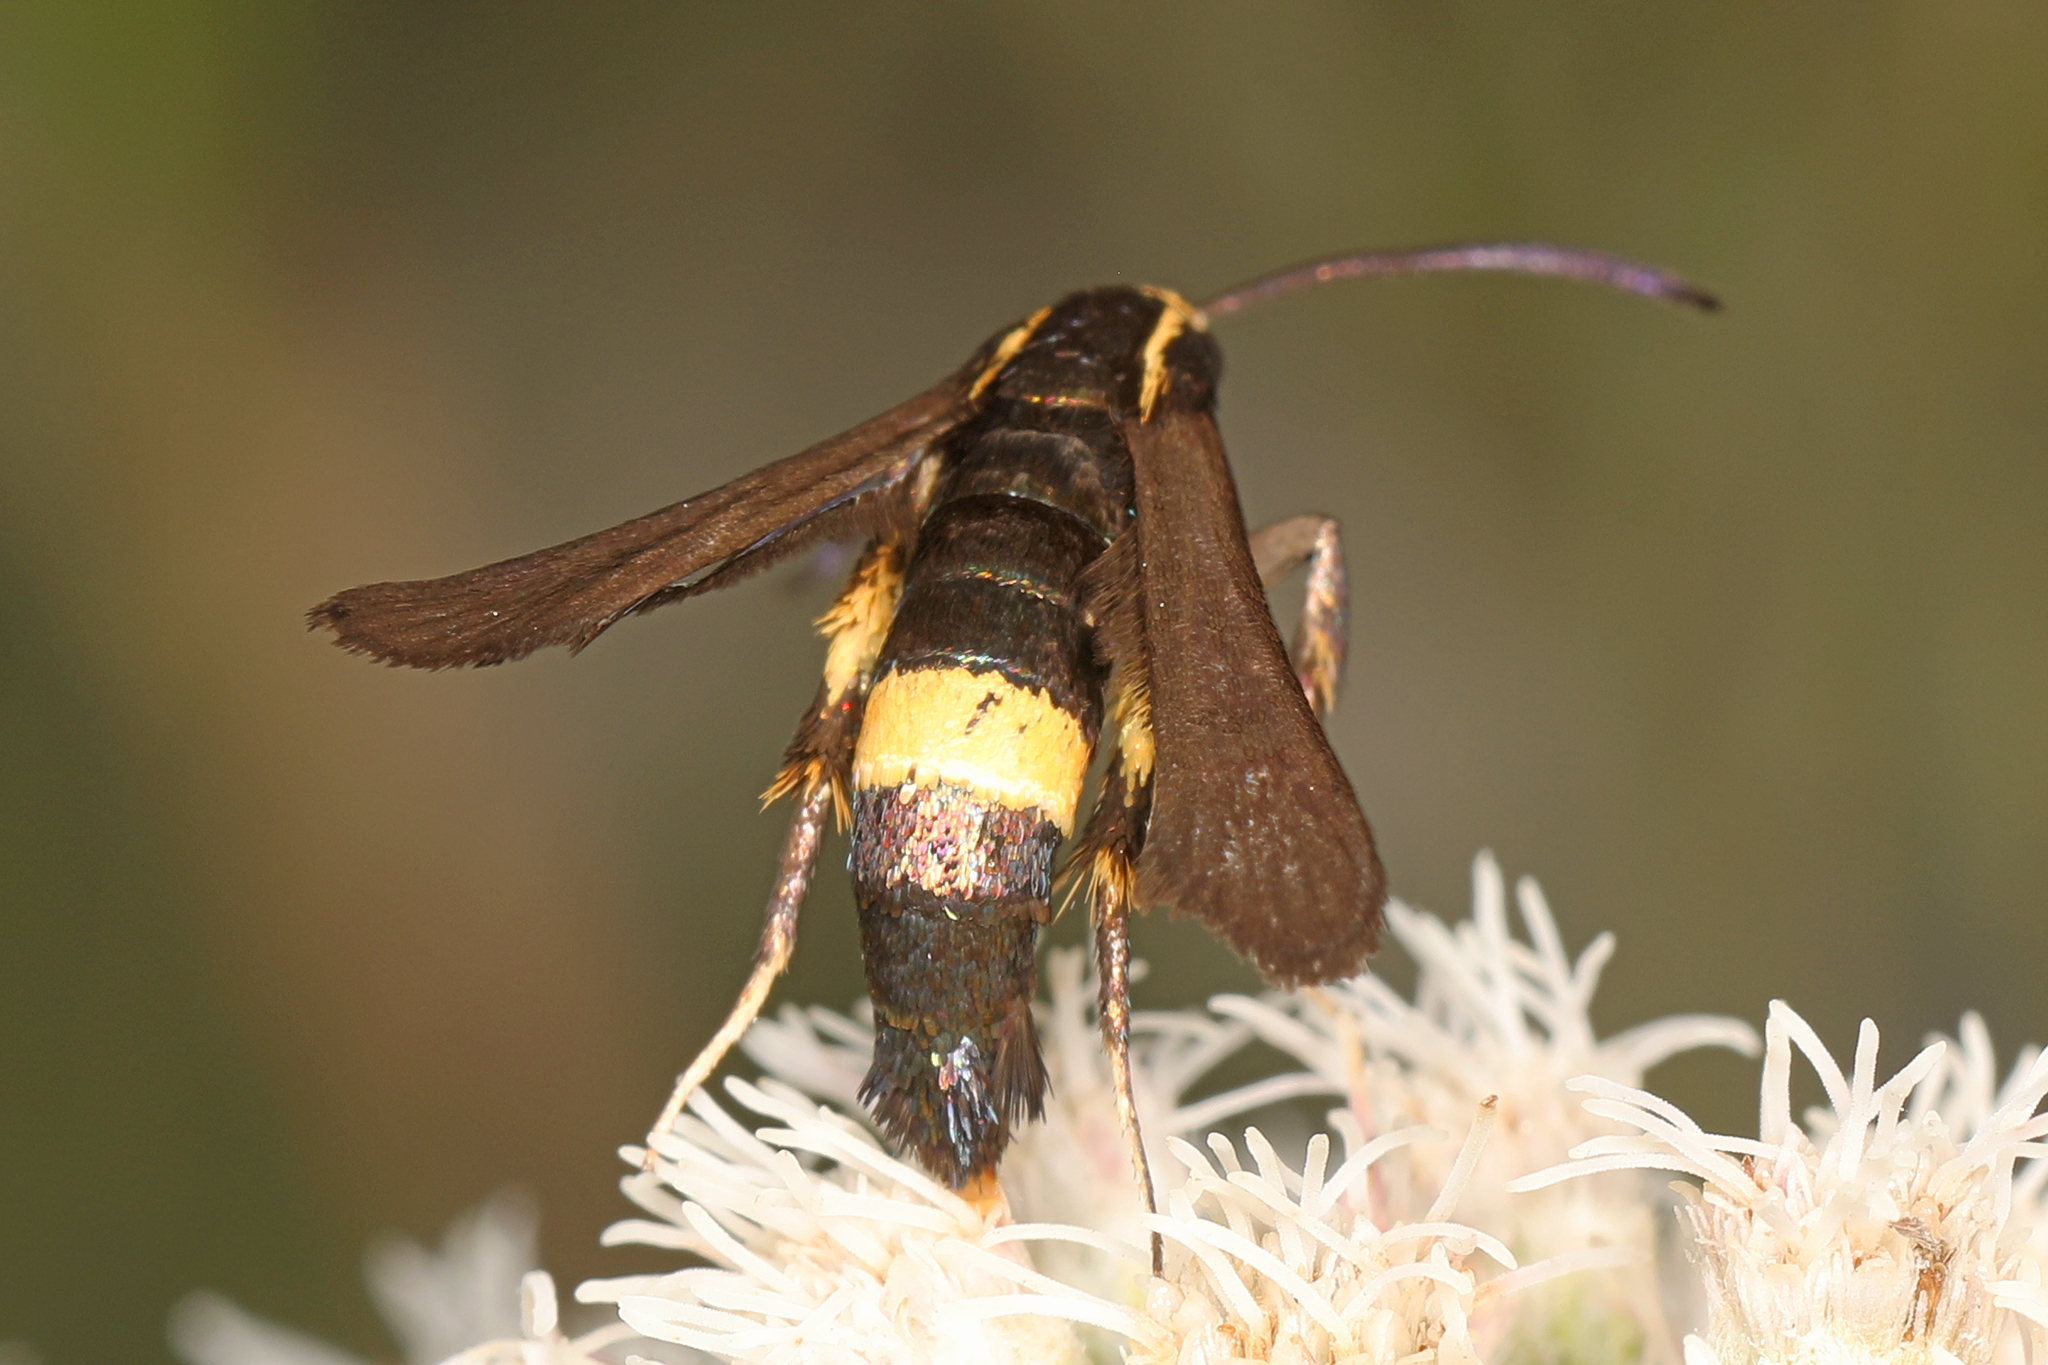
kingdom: Animalia
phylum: Arthropoda
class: Insecta
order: Lepidoptera
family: Sesiidae
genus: Carmenta
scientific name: Carmenta pyralidiformis
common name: Boneset borer moth
